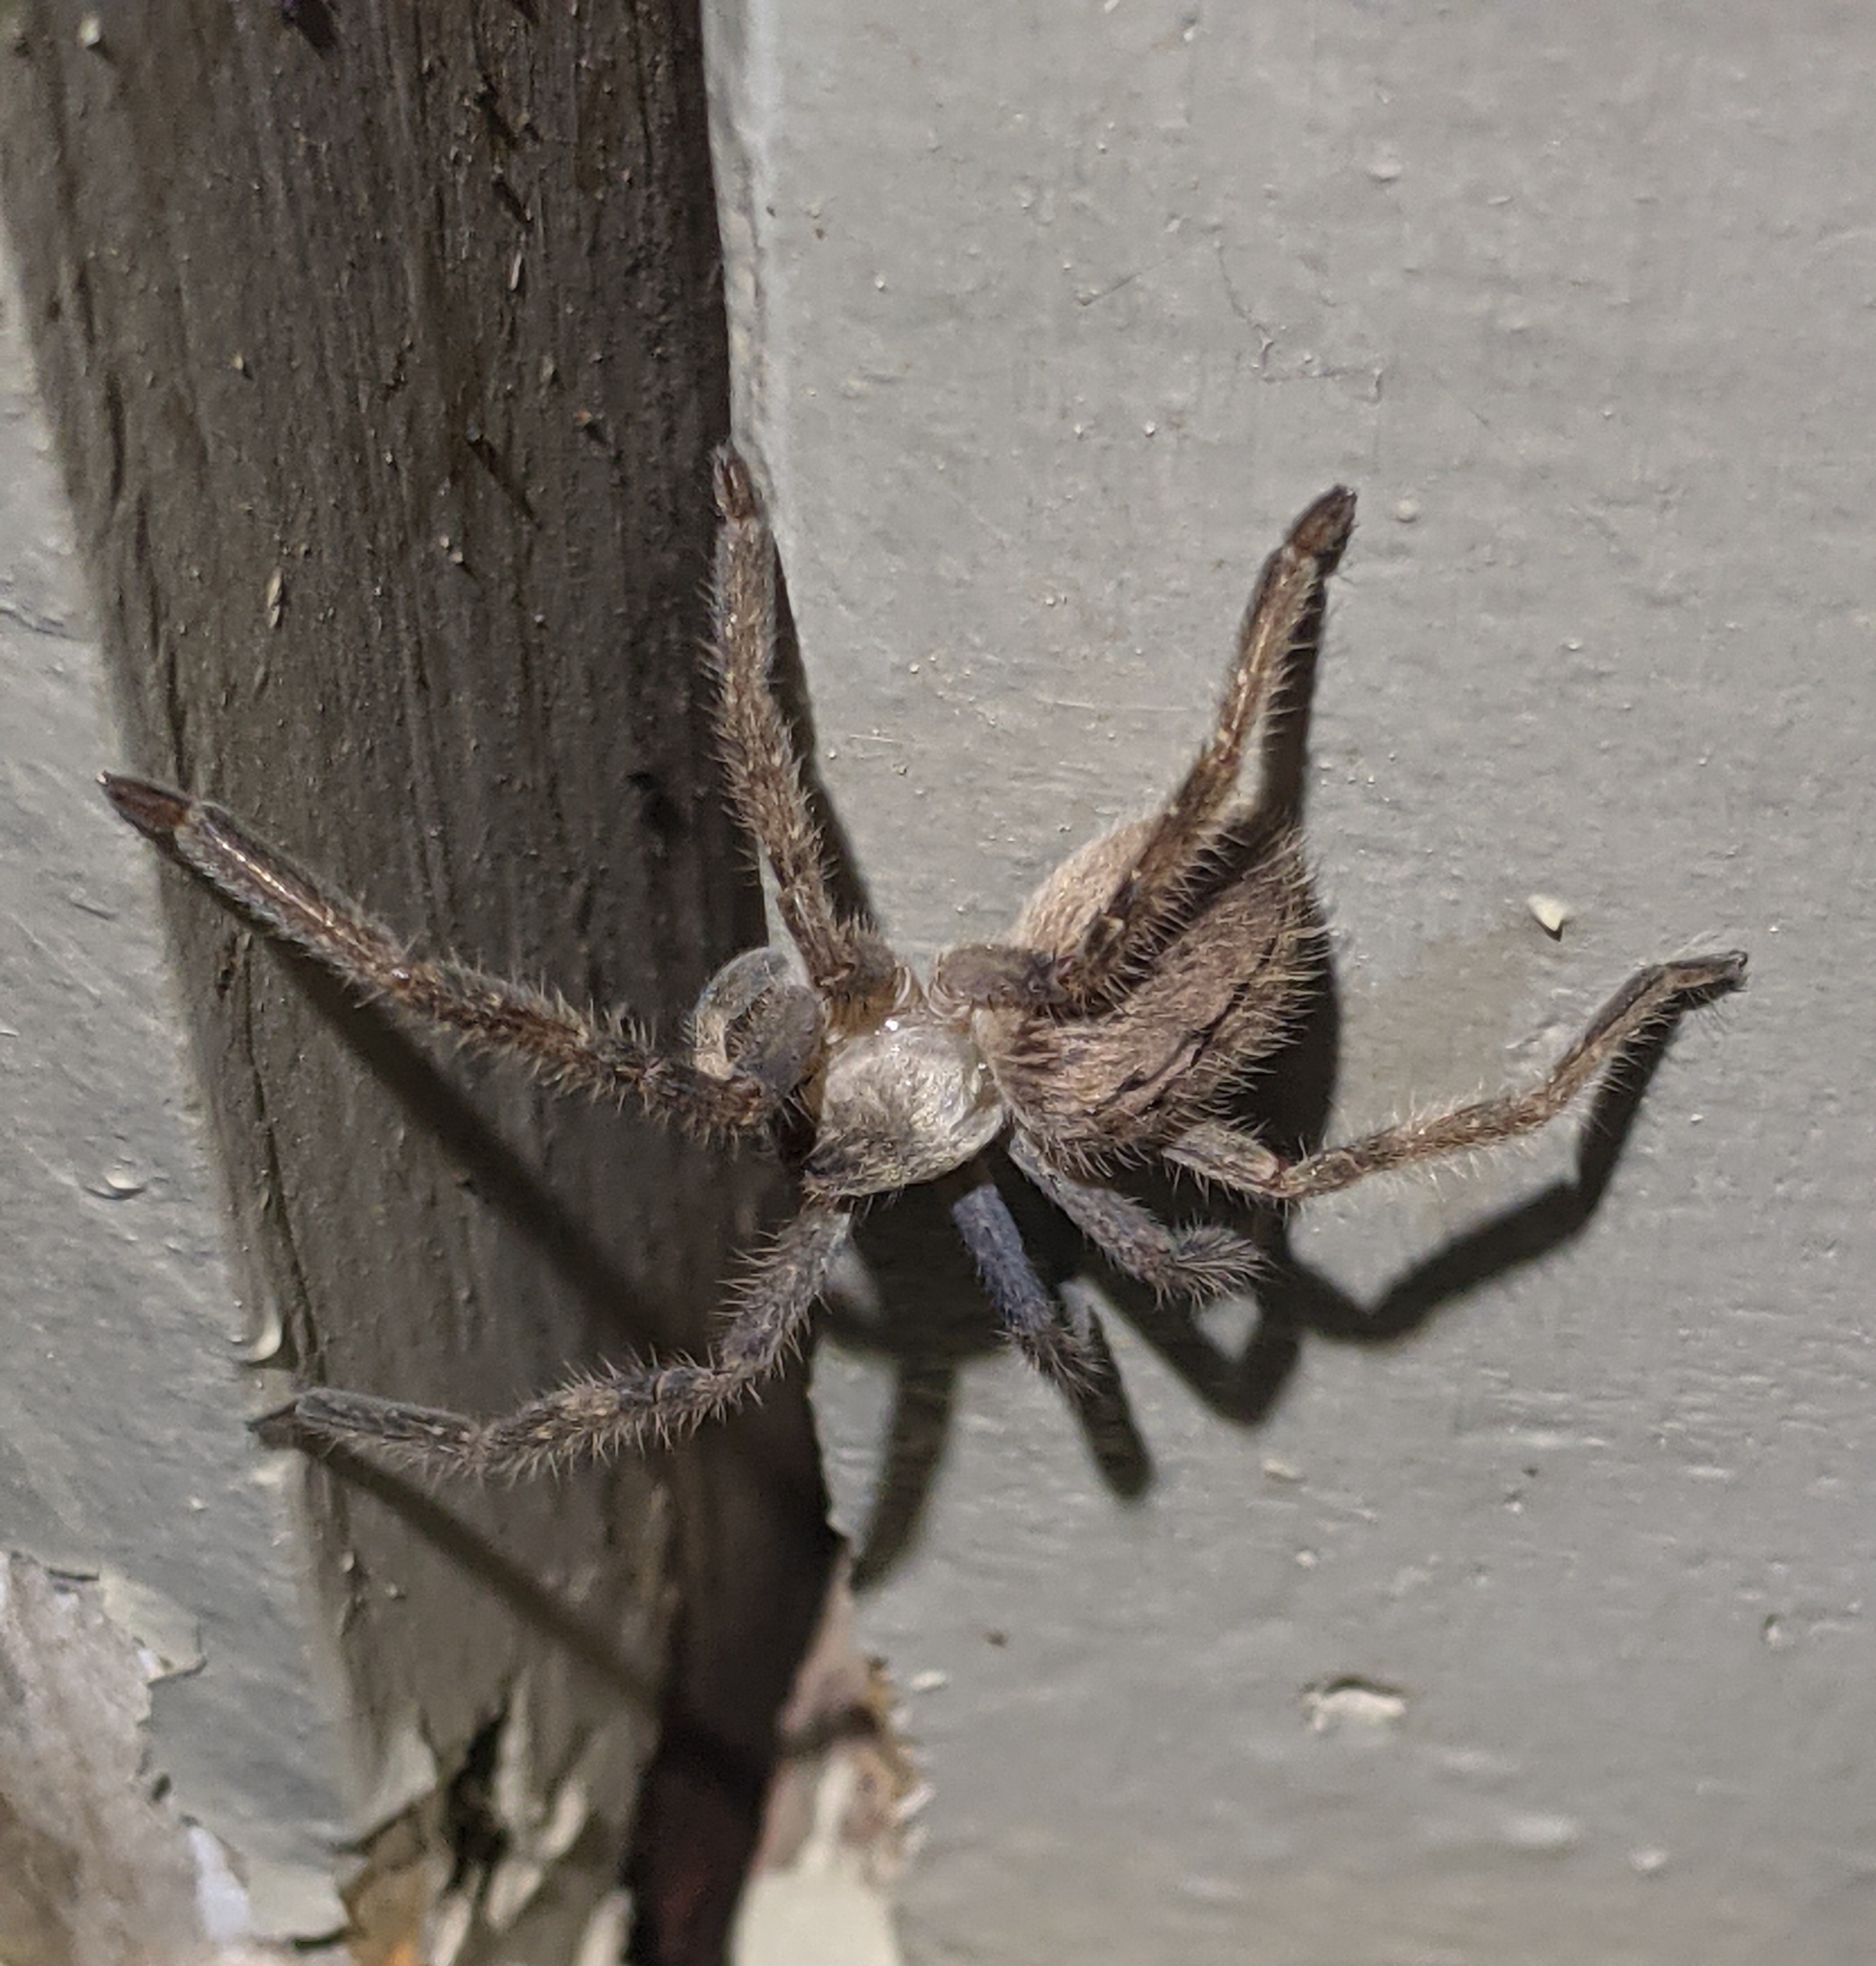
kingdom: Animalia
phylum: Arthropoda
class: Arachnida
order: Araneae
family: Sparassidae
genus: Olios
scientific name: Olios giganteus
